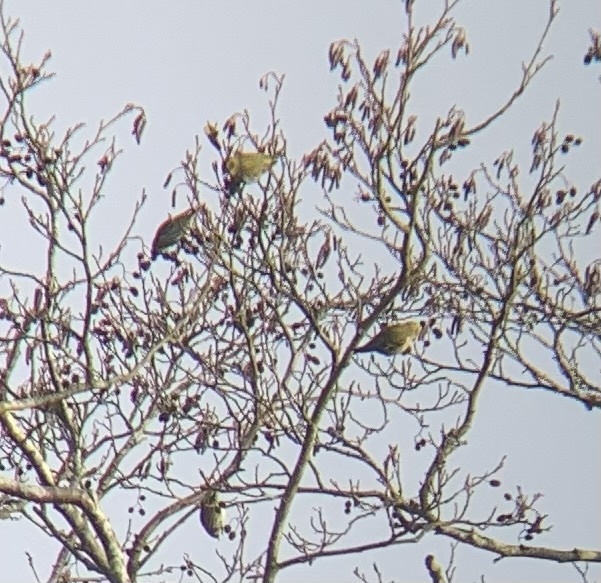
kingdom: Animalia
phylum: Chordata
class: Aves
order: Passeriformes
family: Fringillidae
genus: Spinus
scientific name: Spinus spinus
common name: Eurasian siskin
